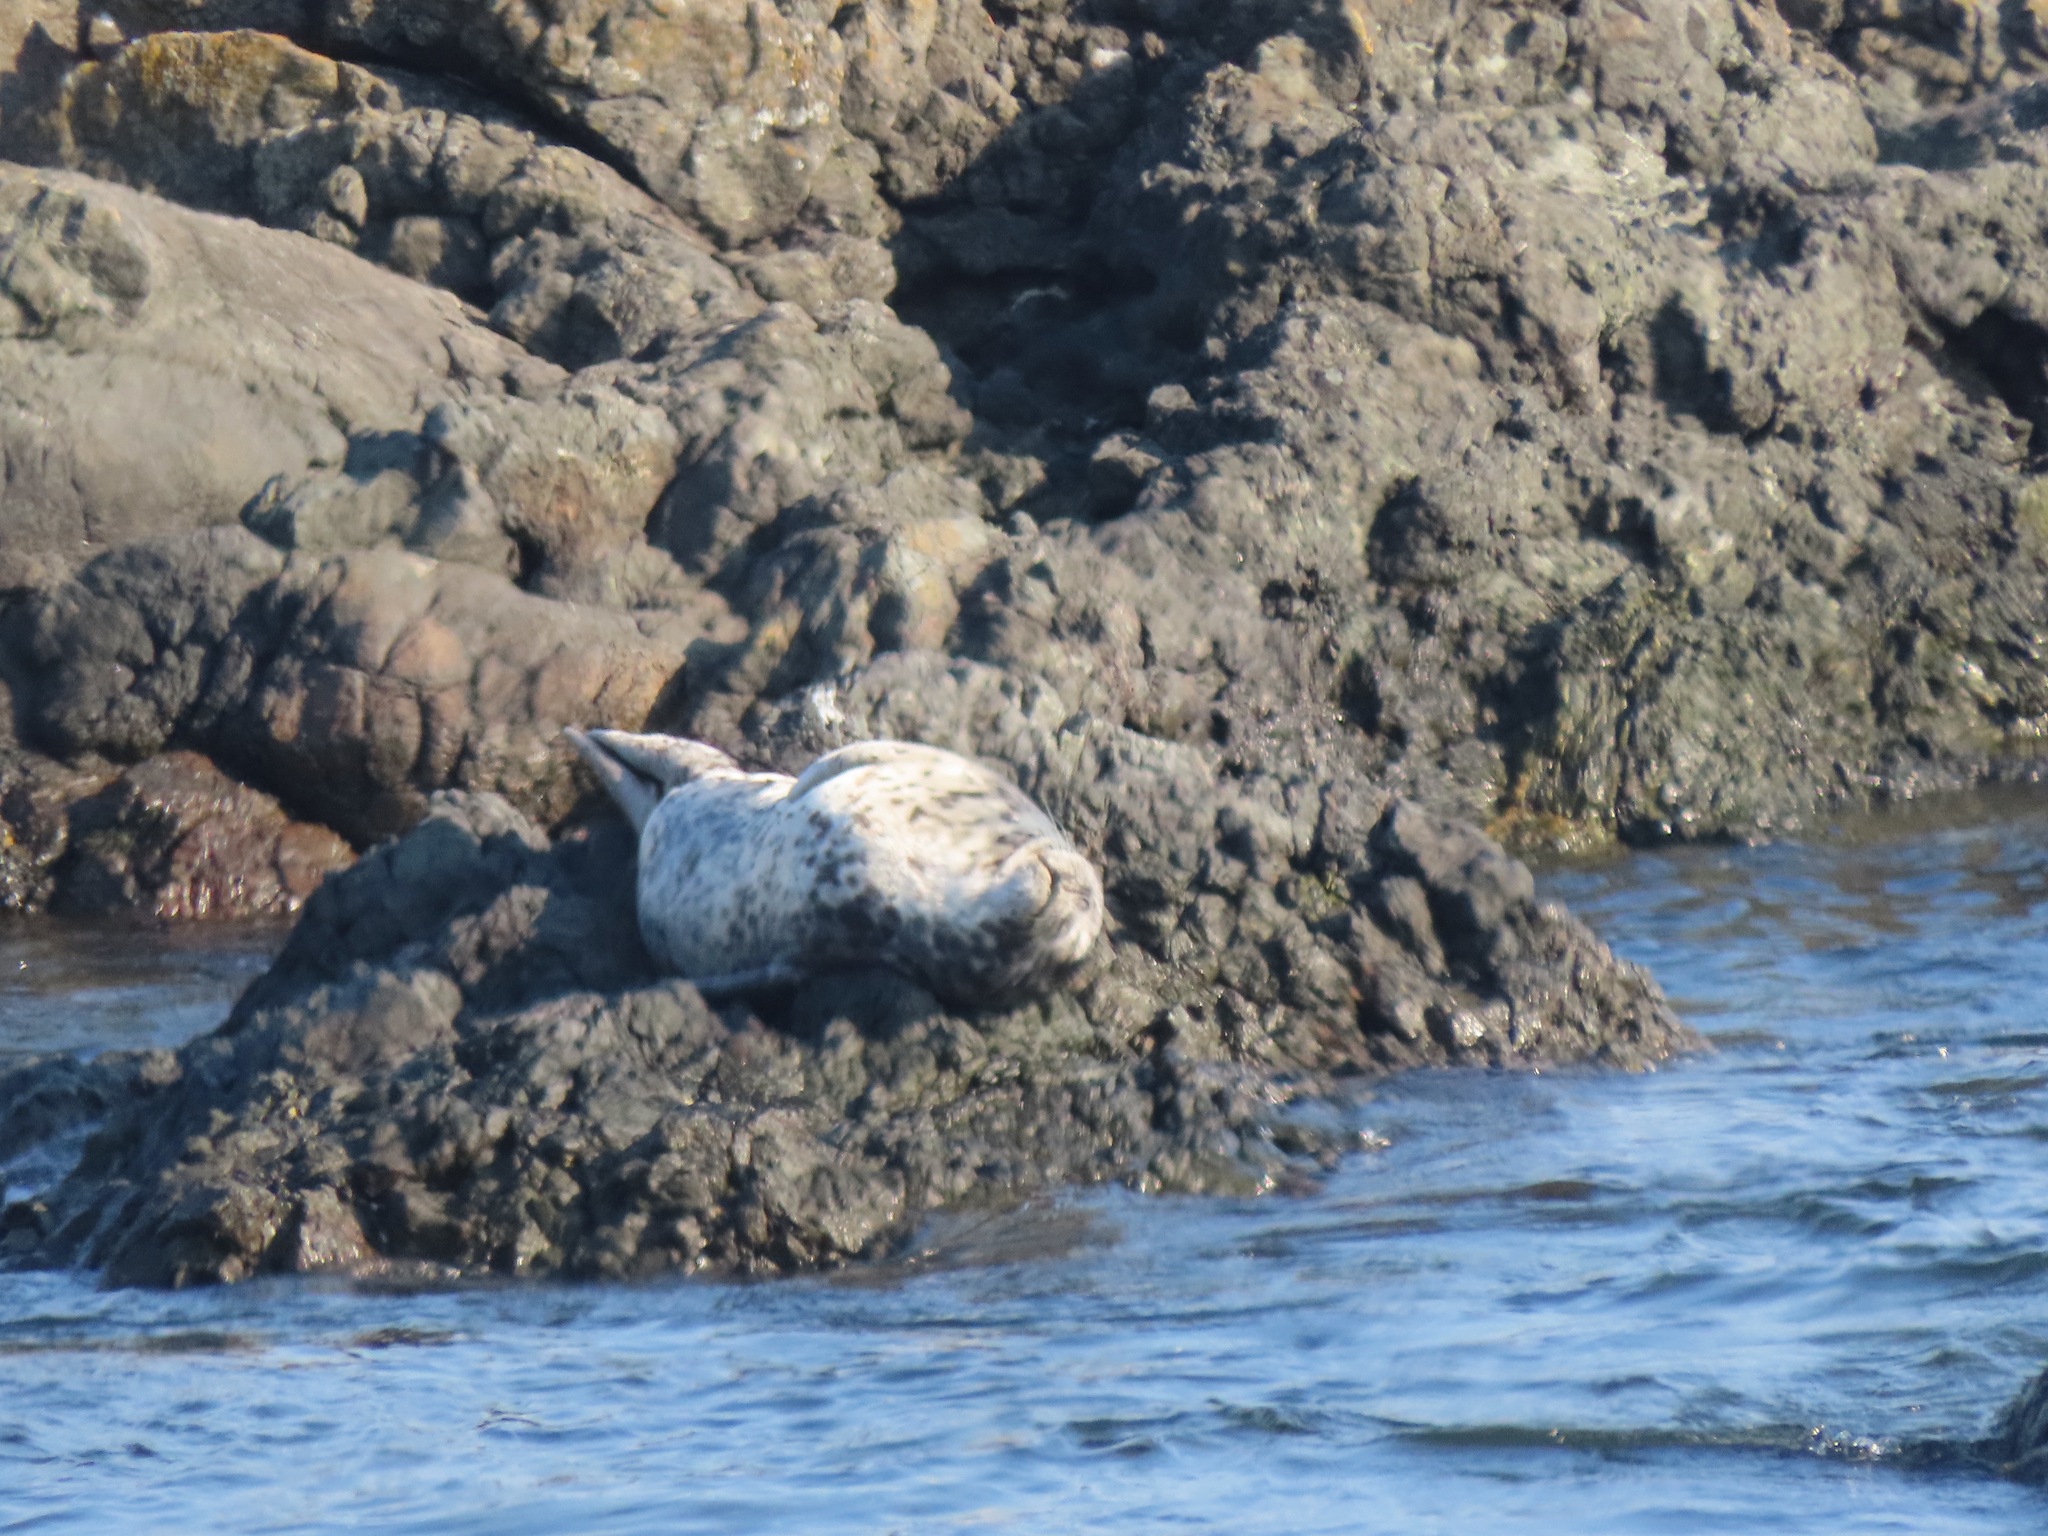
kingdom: Animalia
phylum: Chordata
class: Mammalia
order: Carnivora
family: Phocidae
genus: Phoca
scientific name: Phoca vitulina
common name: Harbor seal
